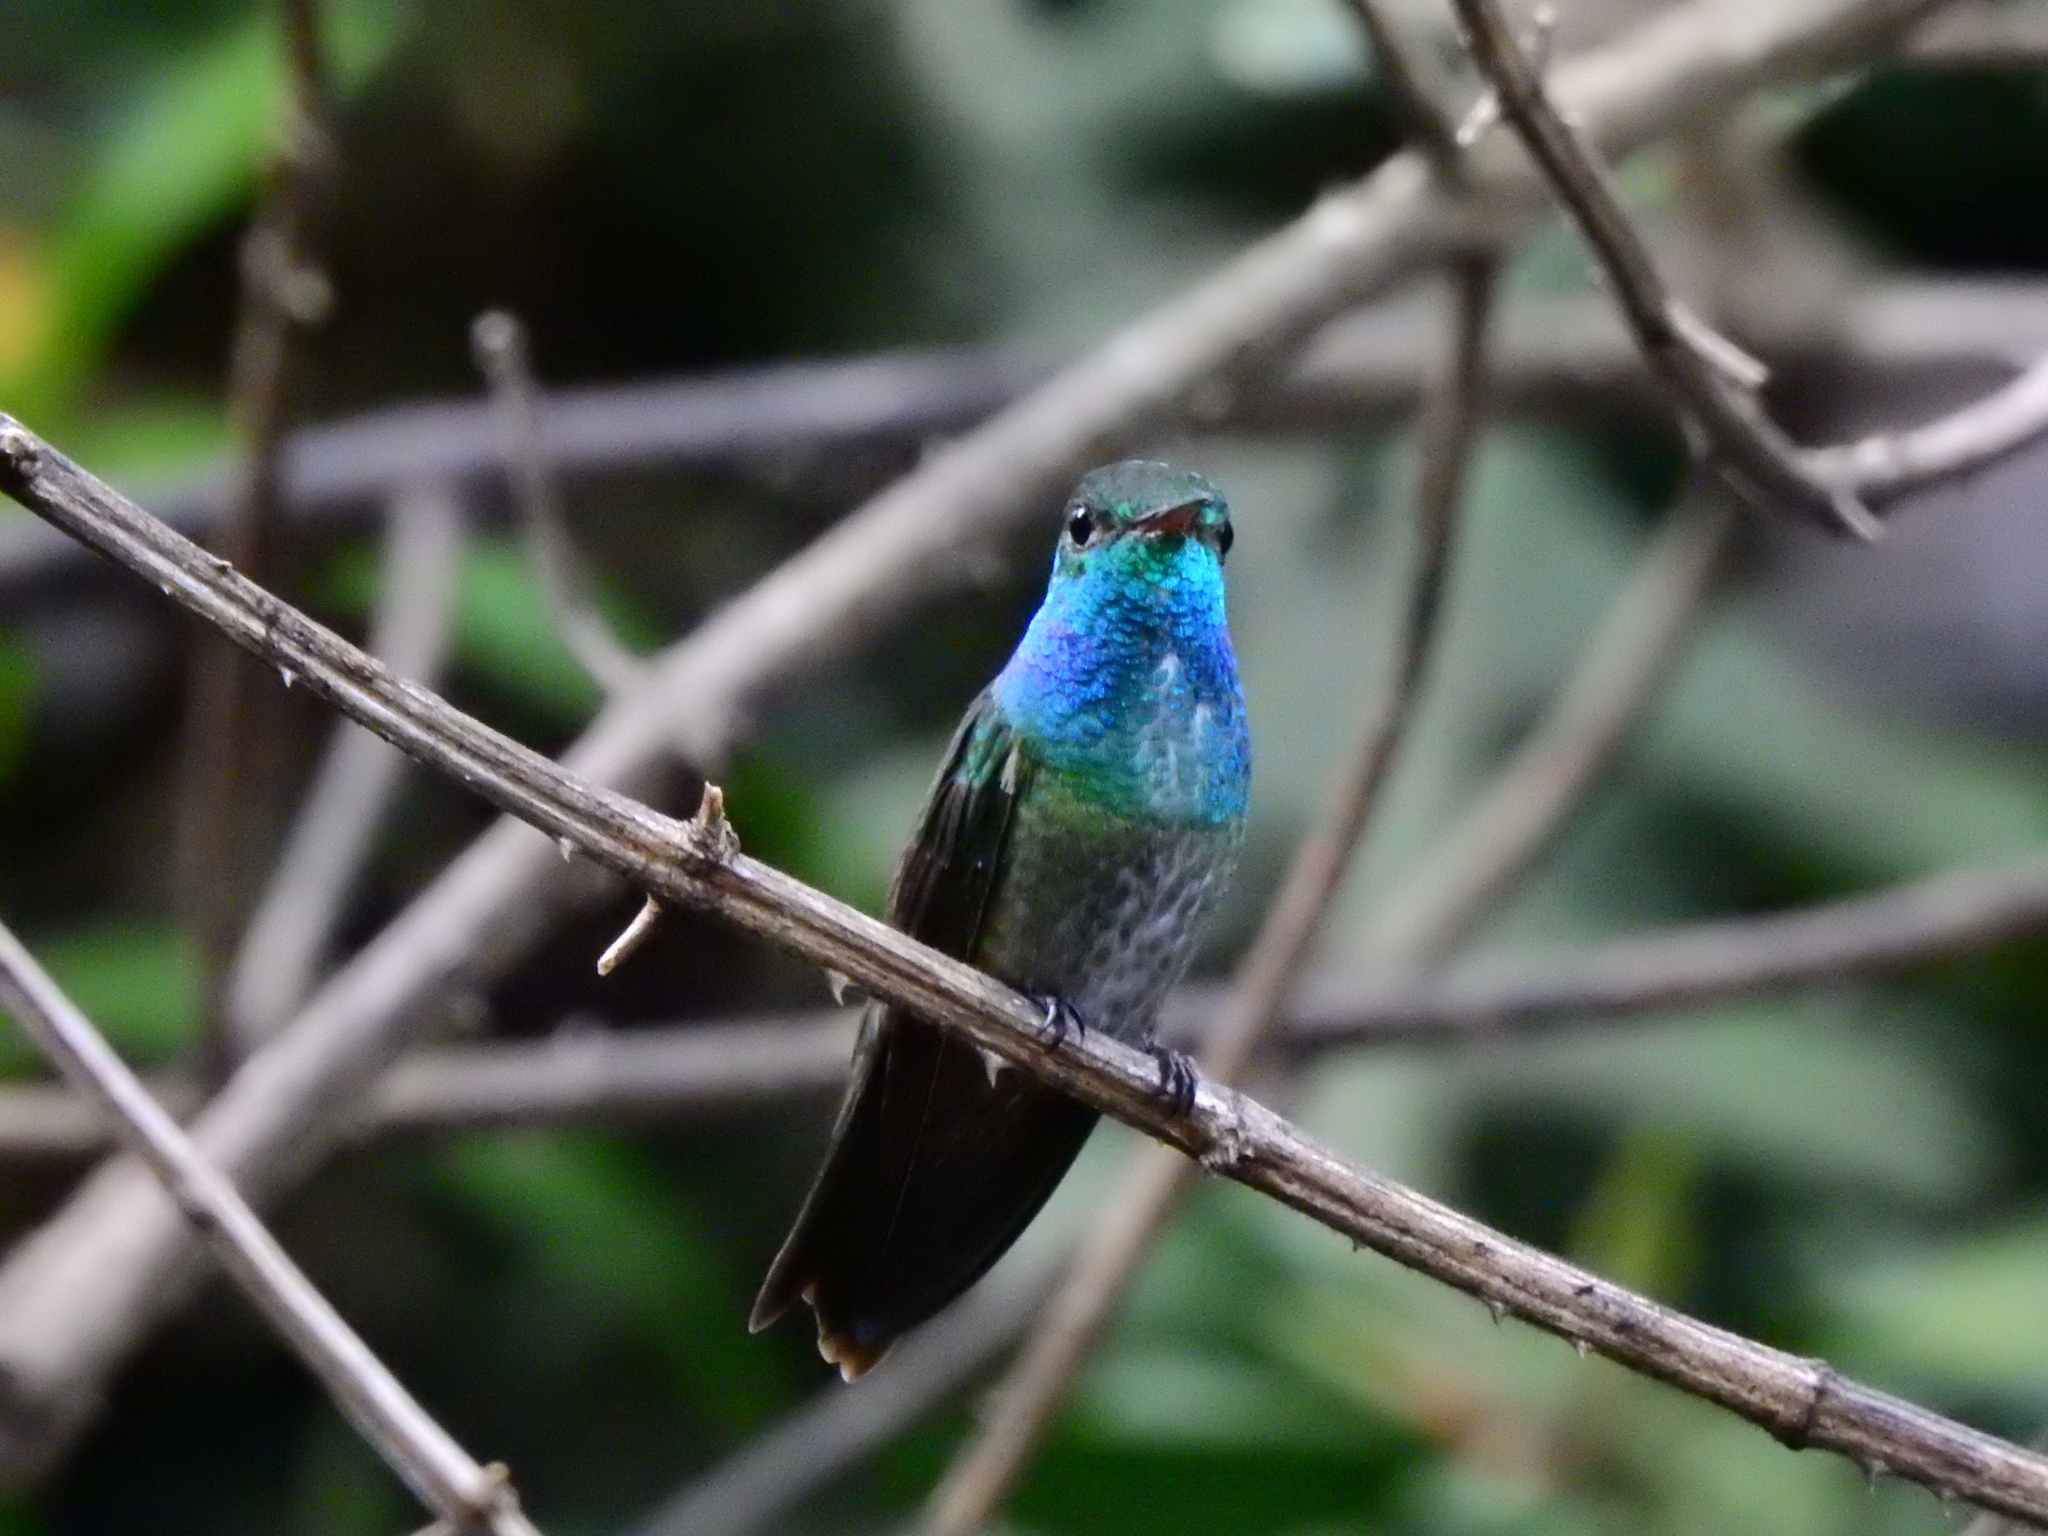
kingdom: Animalia
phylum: Chordata
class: Aves
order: Apodiformes
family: Trochilidae
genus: Chrysuronia
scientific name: Chrysuronia versicolor
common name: Versicolored emerald
